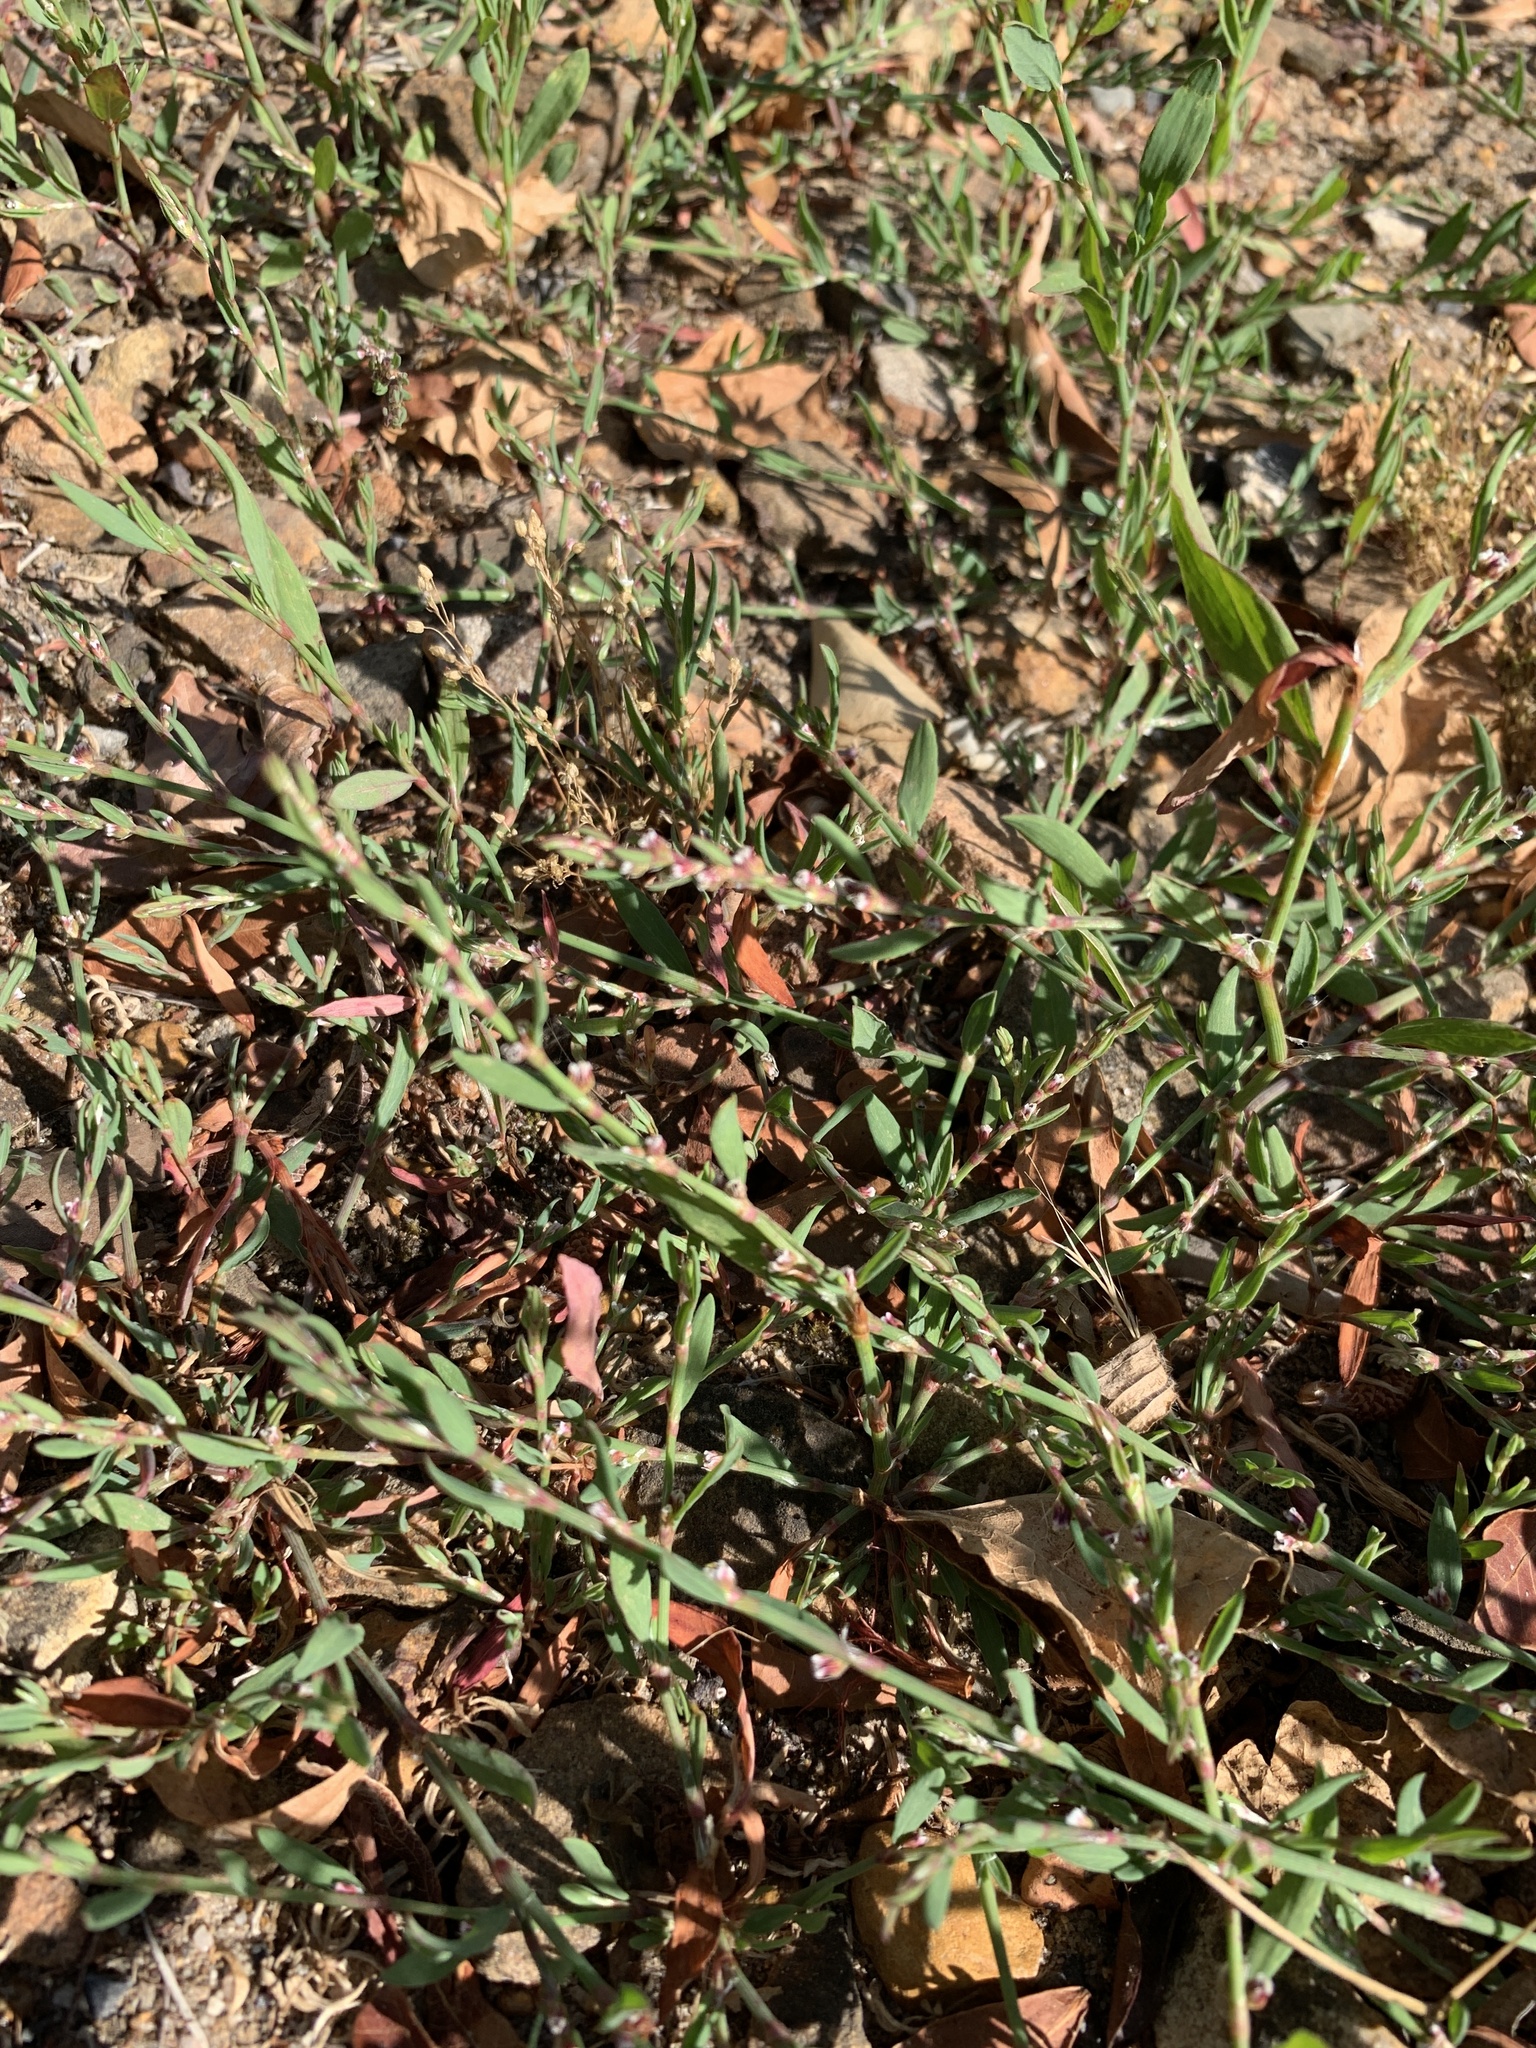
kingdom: Plantae
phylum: Tracheophyta
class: Magnoliopsida
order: Caryophyllales
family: Polygonaceae
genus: Polygonum
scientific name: Polygonum aviculare
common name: Prostrate knotweed
